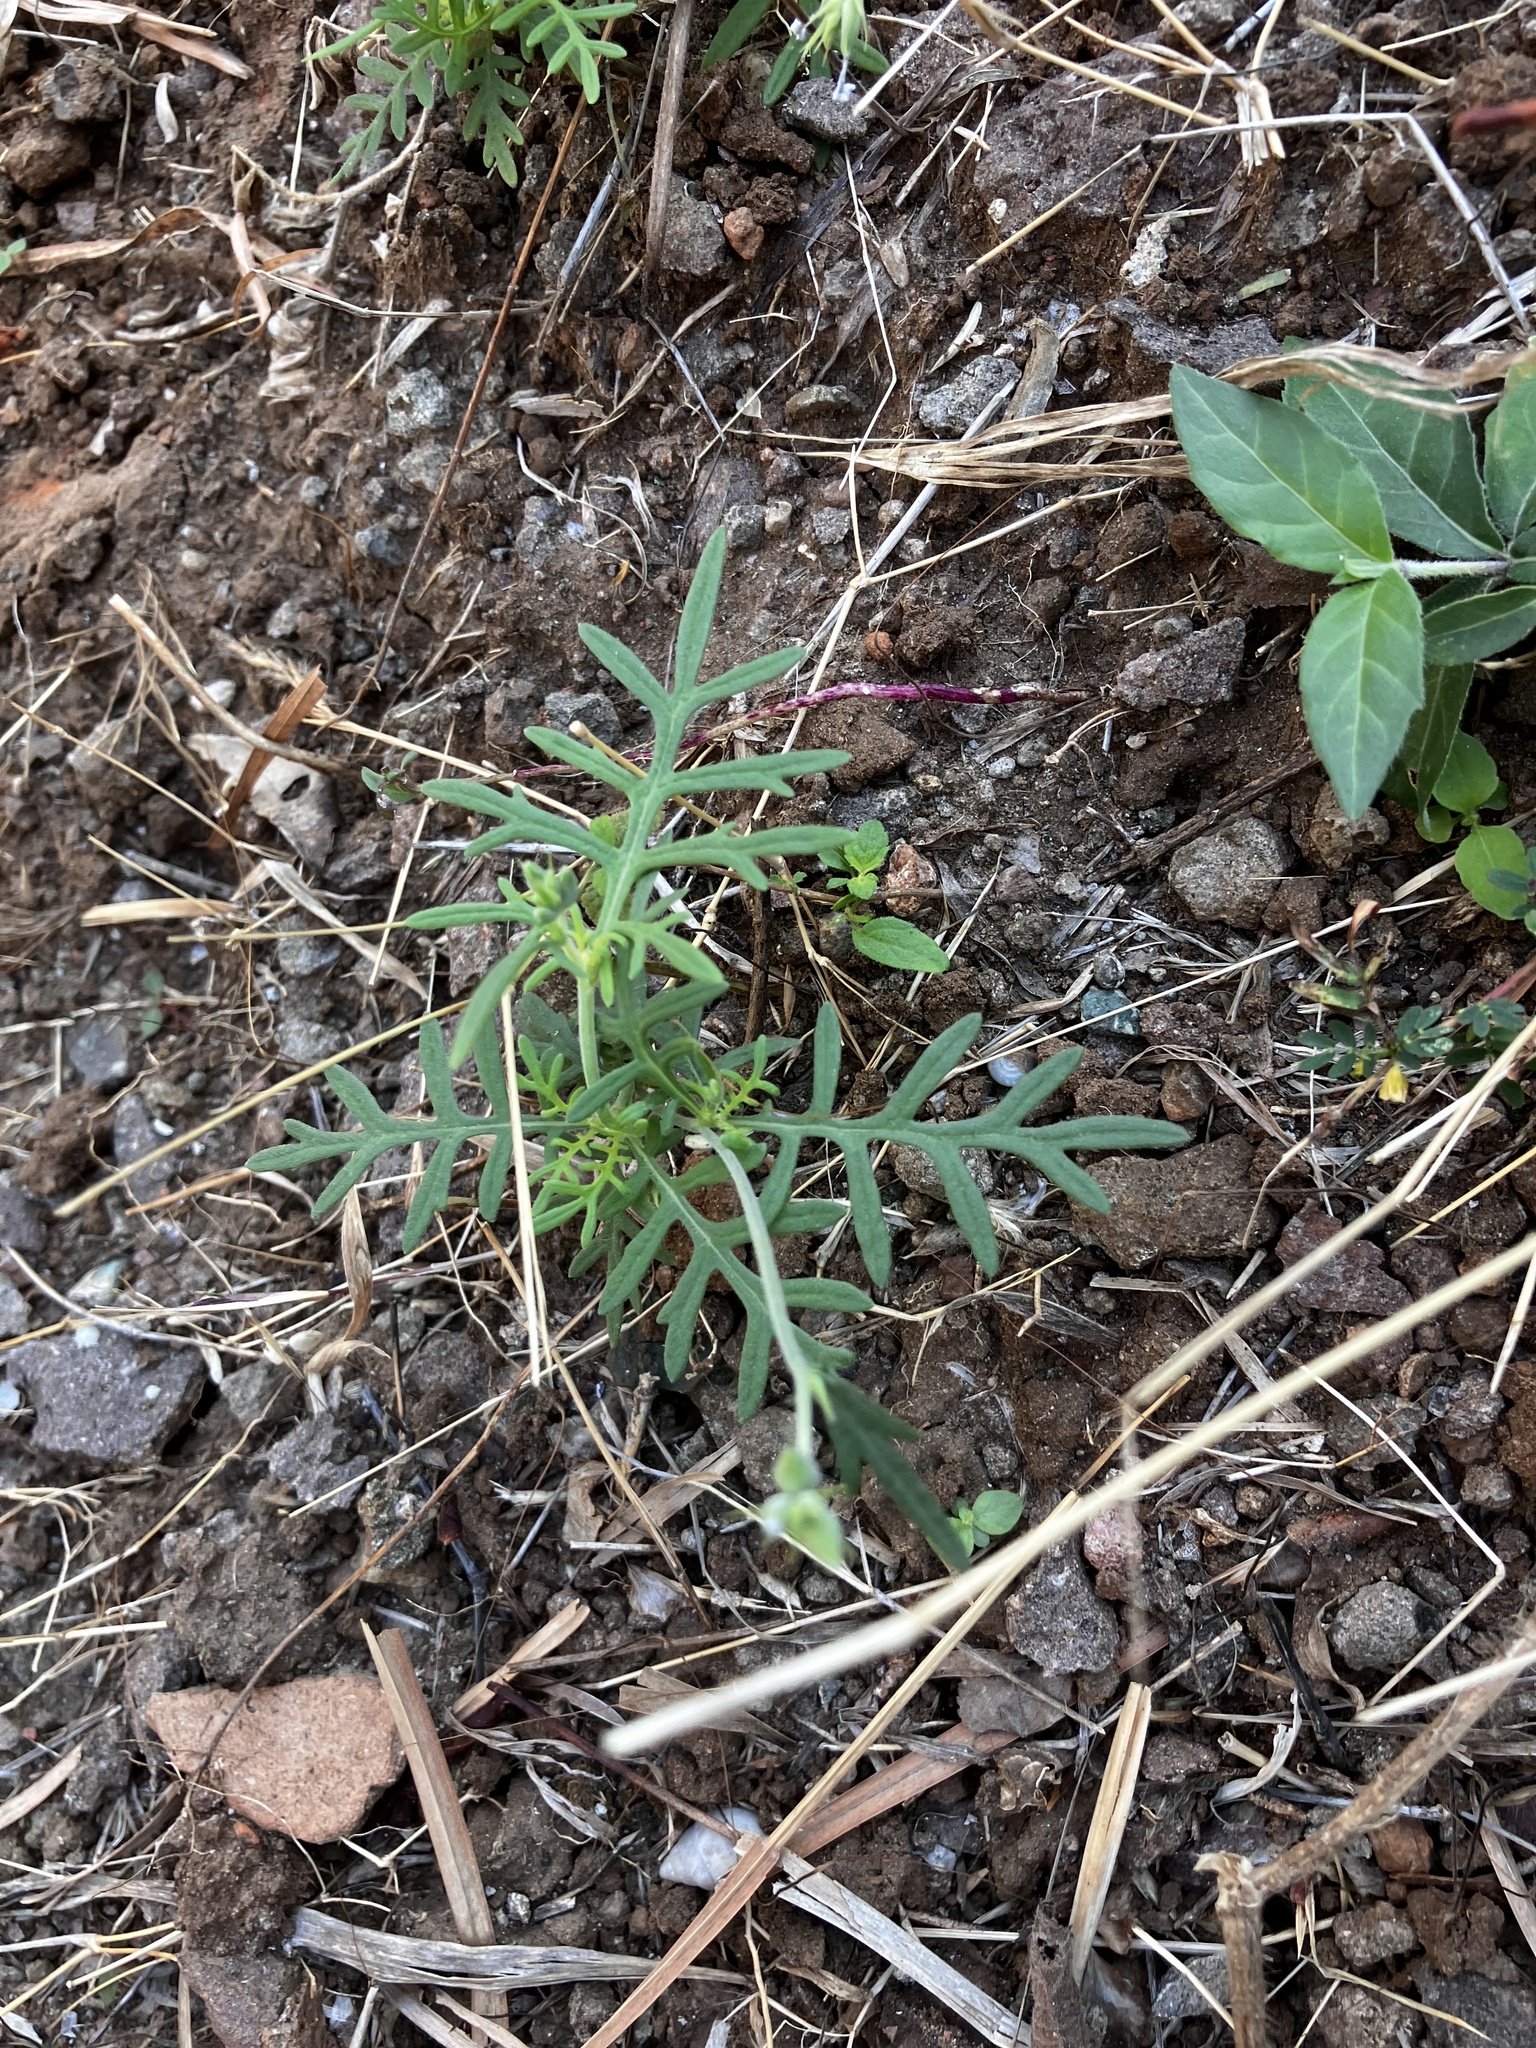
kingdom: Plantae
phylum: Tracheophyta
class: Magnoliopsida
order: Lamiales
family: Lamiaceae
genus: Lavandula
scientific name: Lavandula bipinnata
